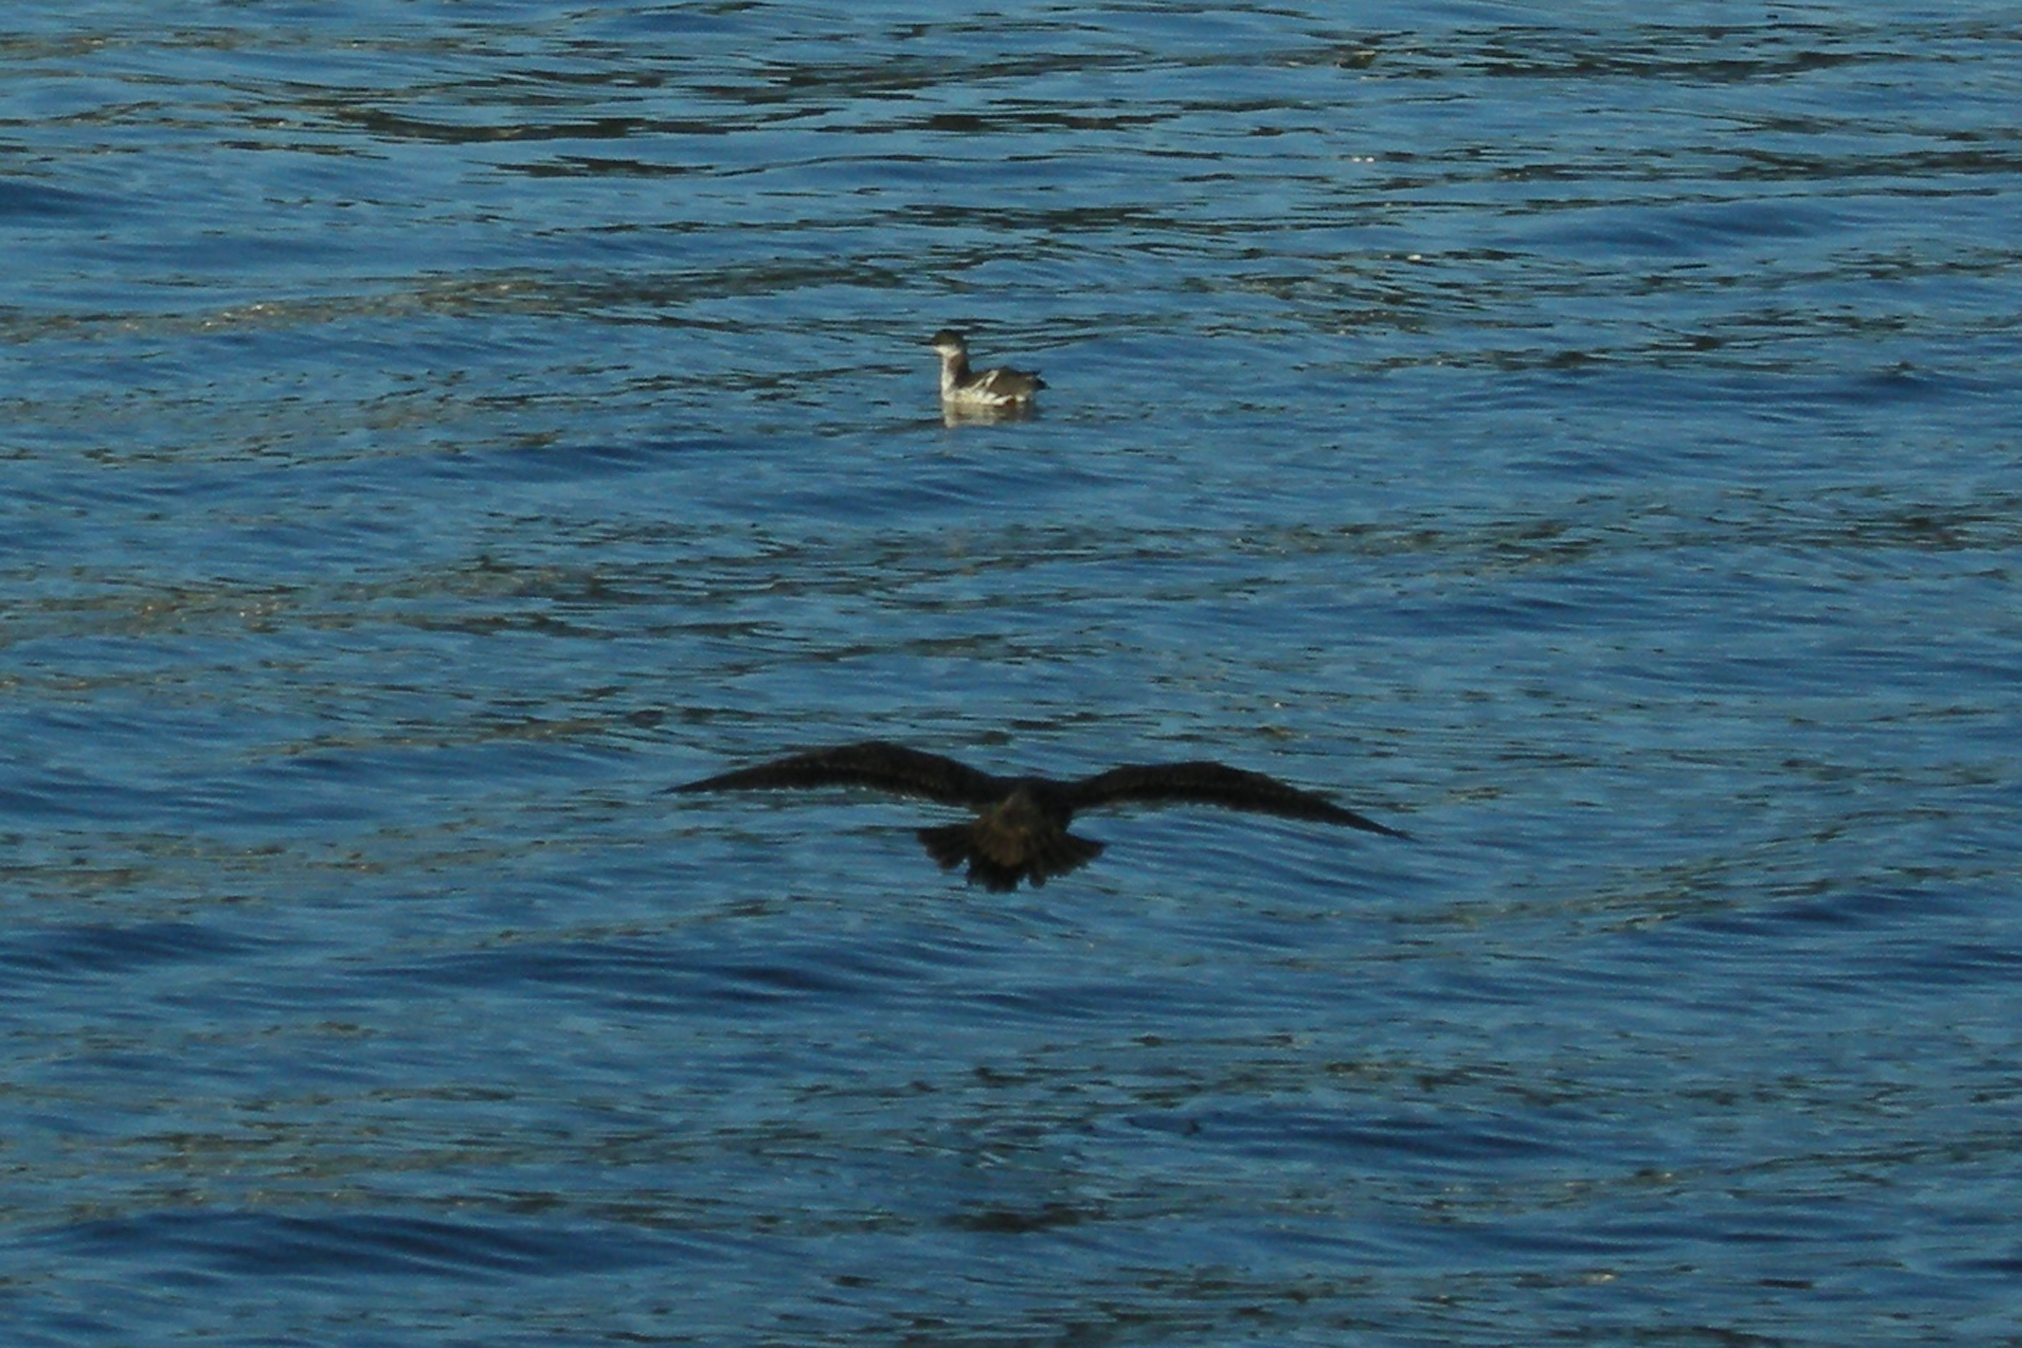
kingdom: Animalia
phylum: Chordata
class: Aves
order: Charadriiformes
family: Laridae
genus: Larus
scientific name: Larus heermanni
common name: Heermann's gull
